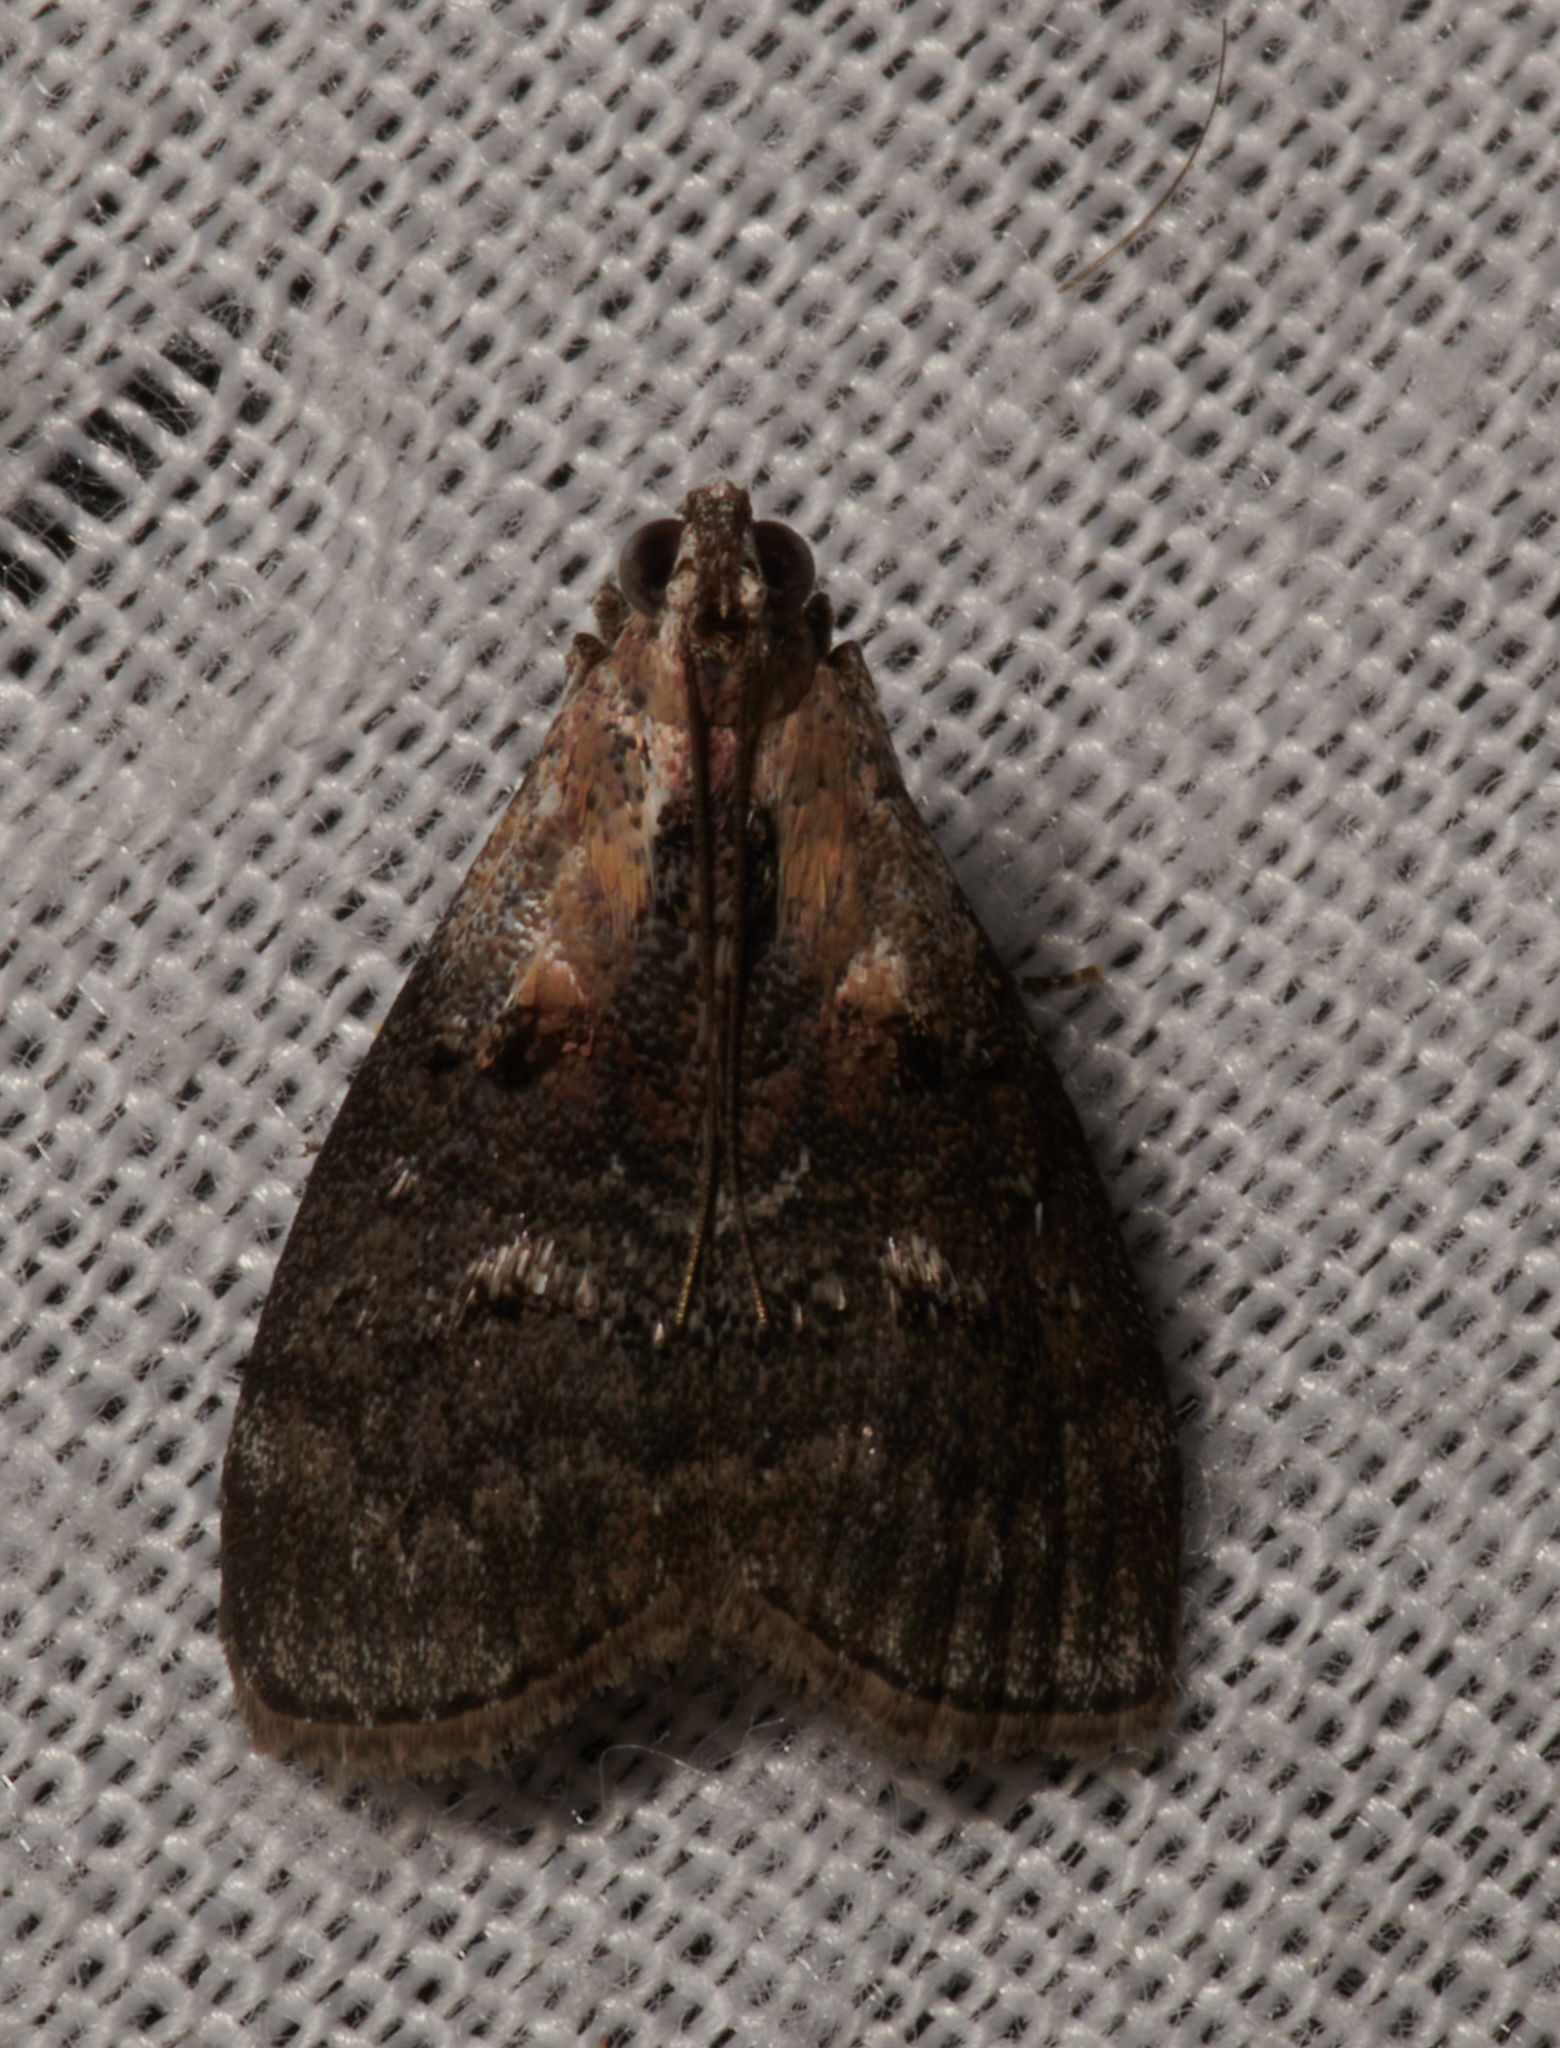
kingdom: Animalia
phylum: Arthropoda
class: Insecta
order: Lepidoptera
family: Pyralidae
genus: Pococera
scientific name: Pococera expandens
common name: Striped oak webworm moth
